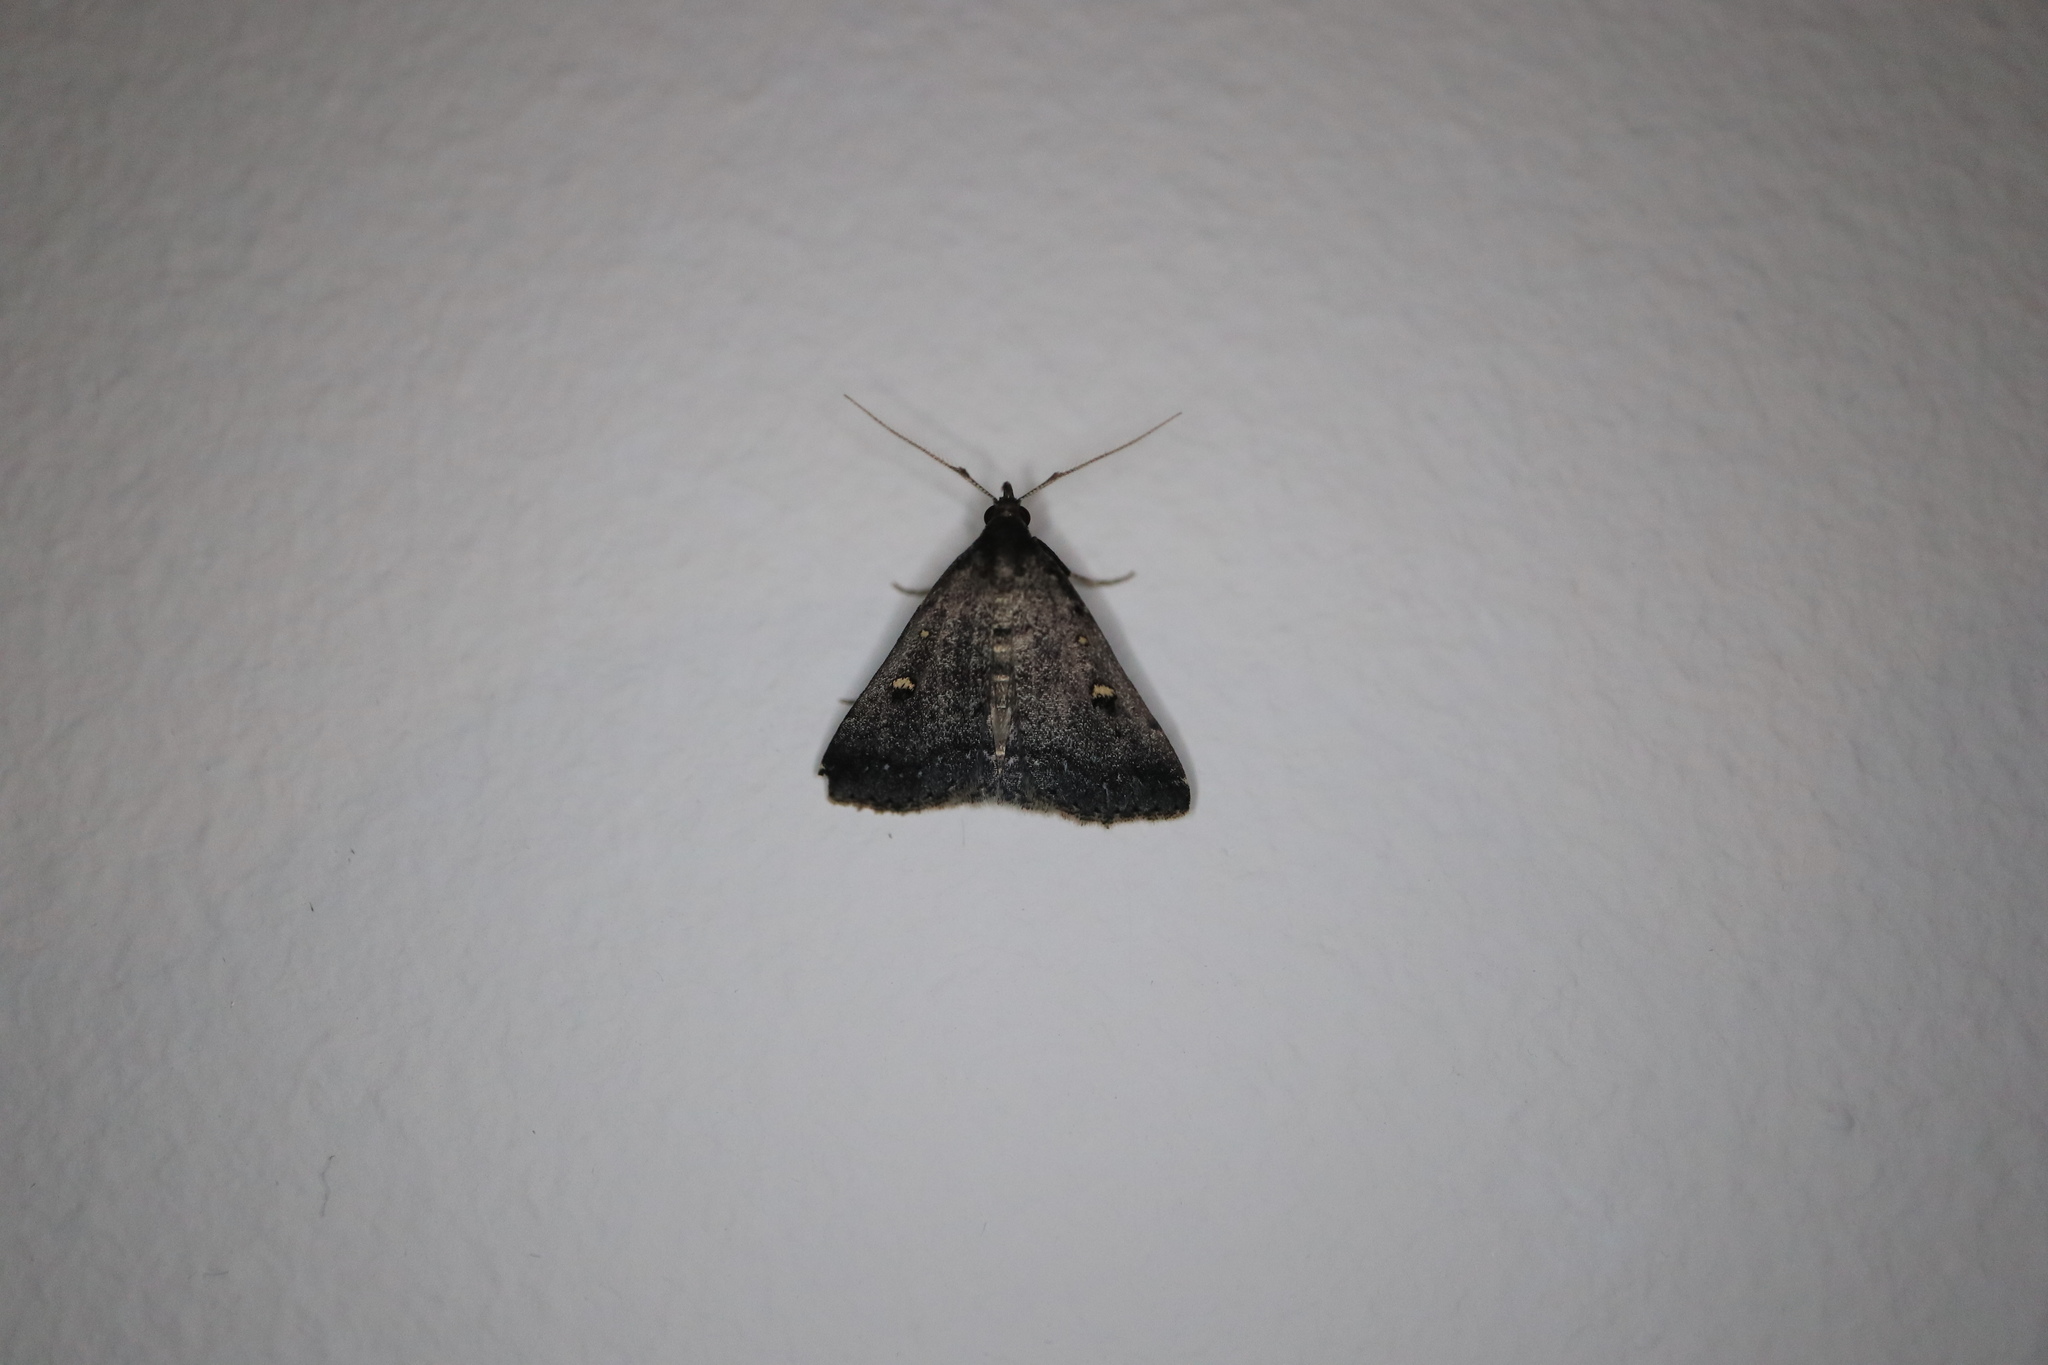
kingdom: Animalia
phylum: Arthropoda
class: Insecta
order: Lepidoptera
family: Erebidae
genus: Tetanolita
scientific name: Tetanolita mynesalis
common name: Smoky tetanolita moth
